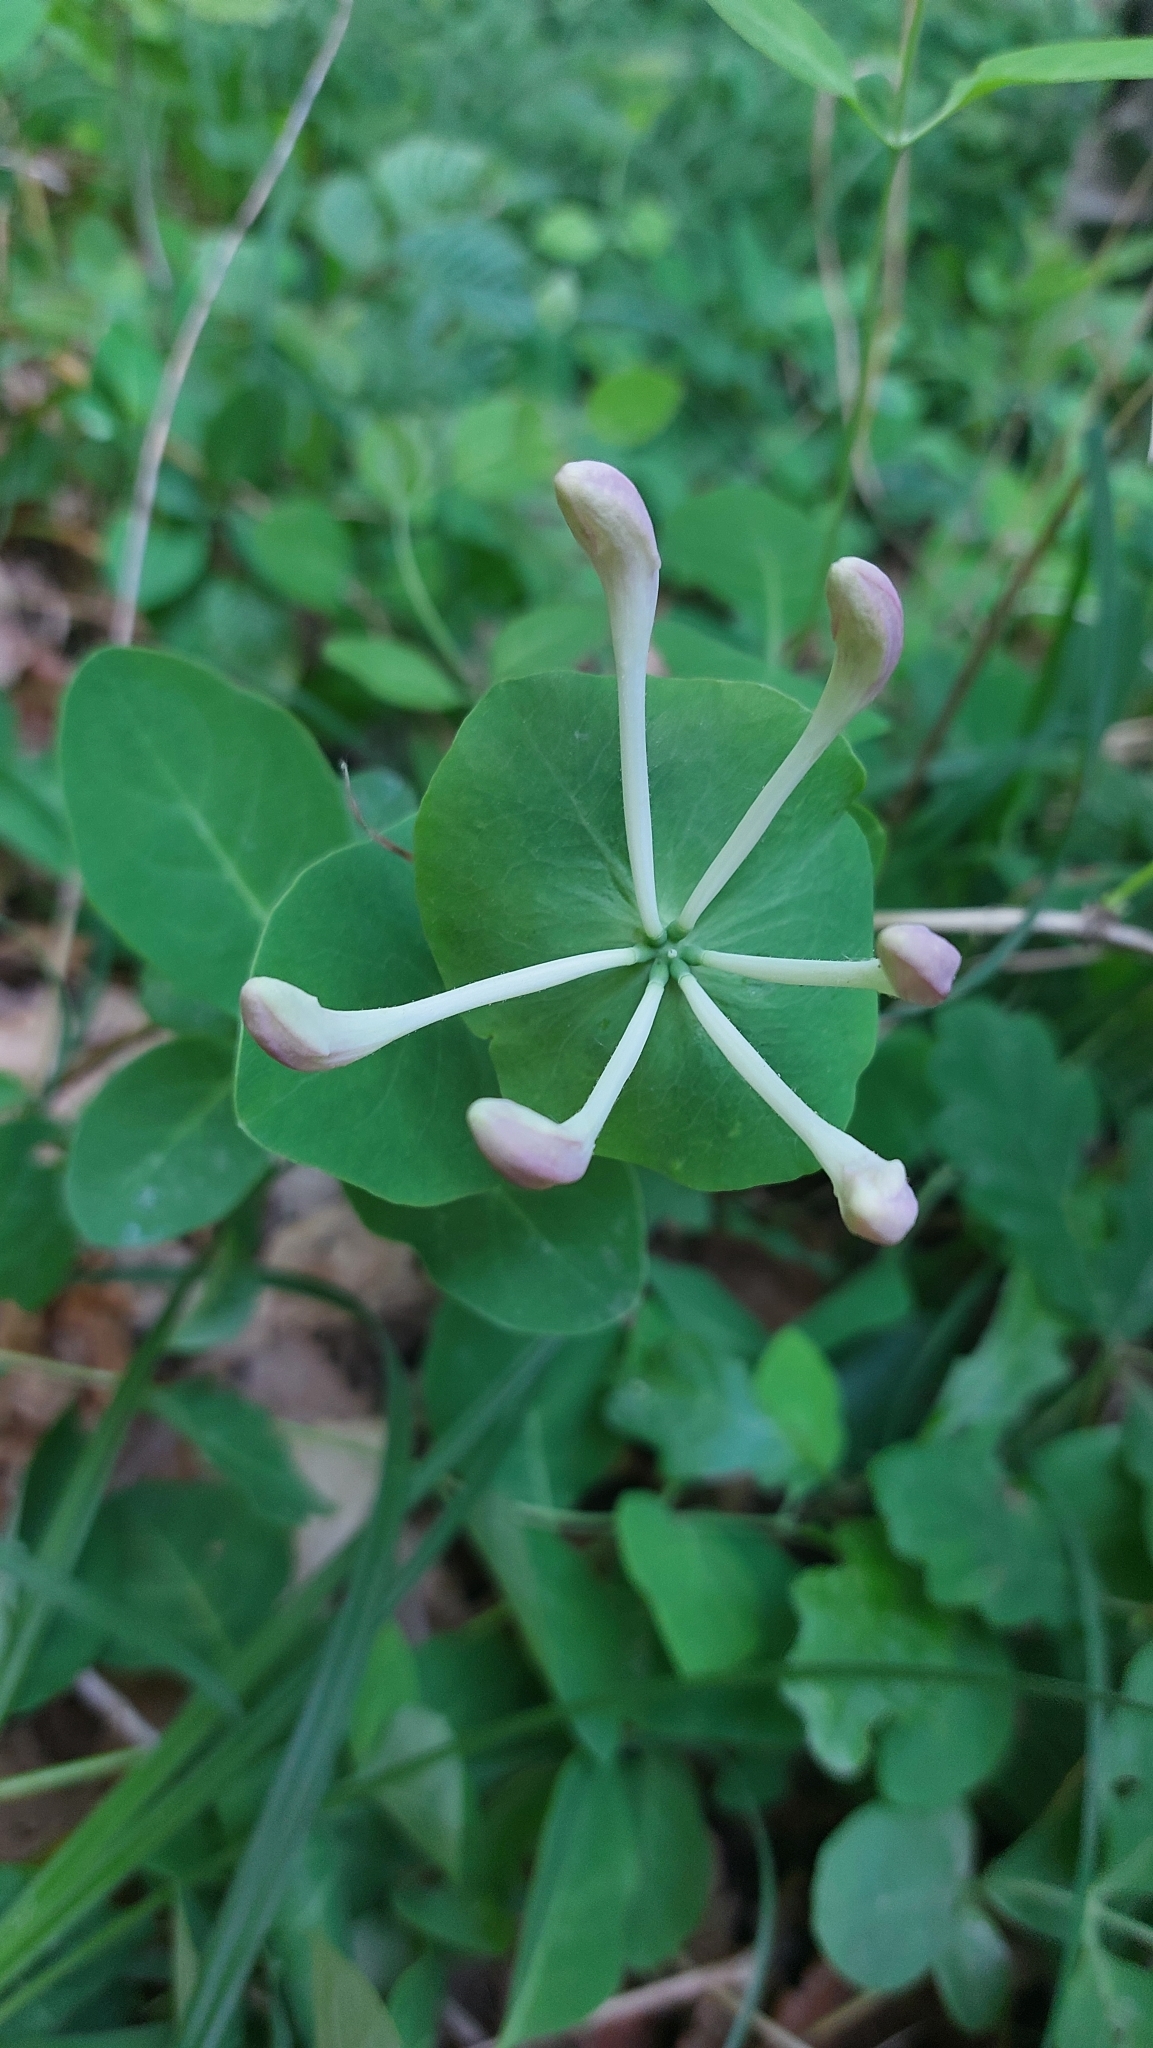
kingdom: Plantae
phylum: Tracheophyta
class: Magnoliopsida
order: Dipsacales
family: Caprifoliaceae
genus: Lonicera
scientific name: Lonicera caprifolium
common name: Perfoliate honeysuckle
